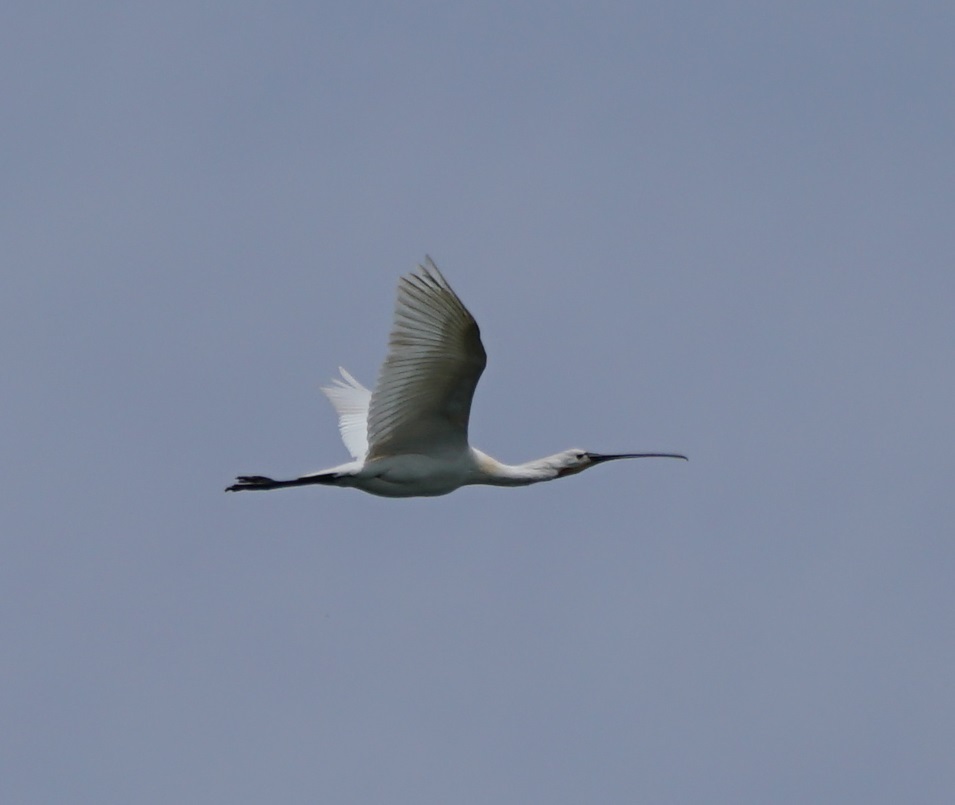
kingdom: Animalia
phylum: Chordata
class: Aves
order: Pelecaniformes
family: Threskiornithidae
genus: Platalea
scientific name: Platalea leucorodia
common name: Eurasian spoonbill
